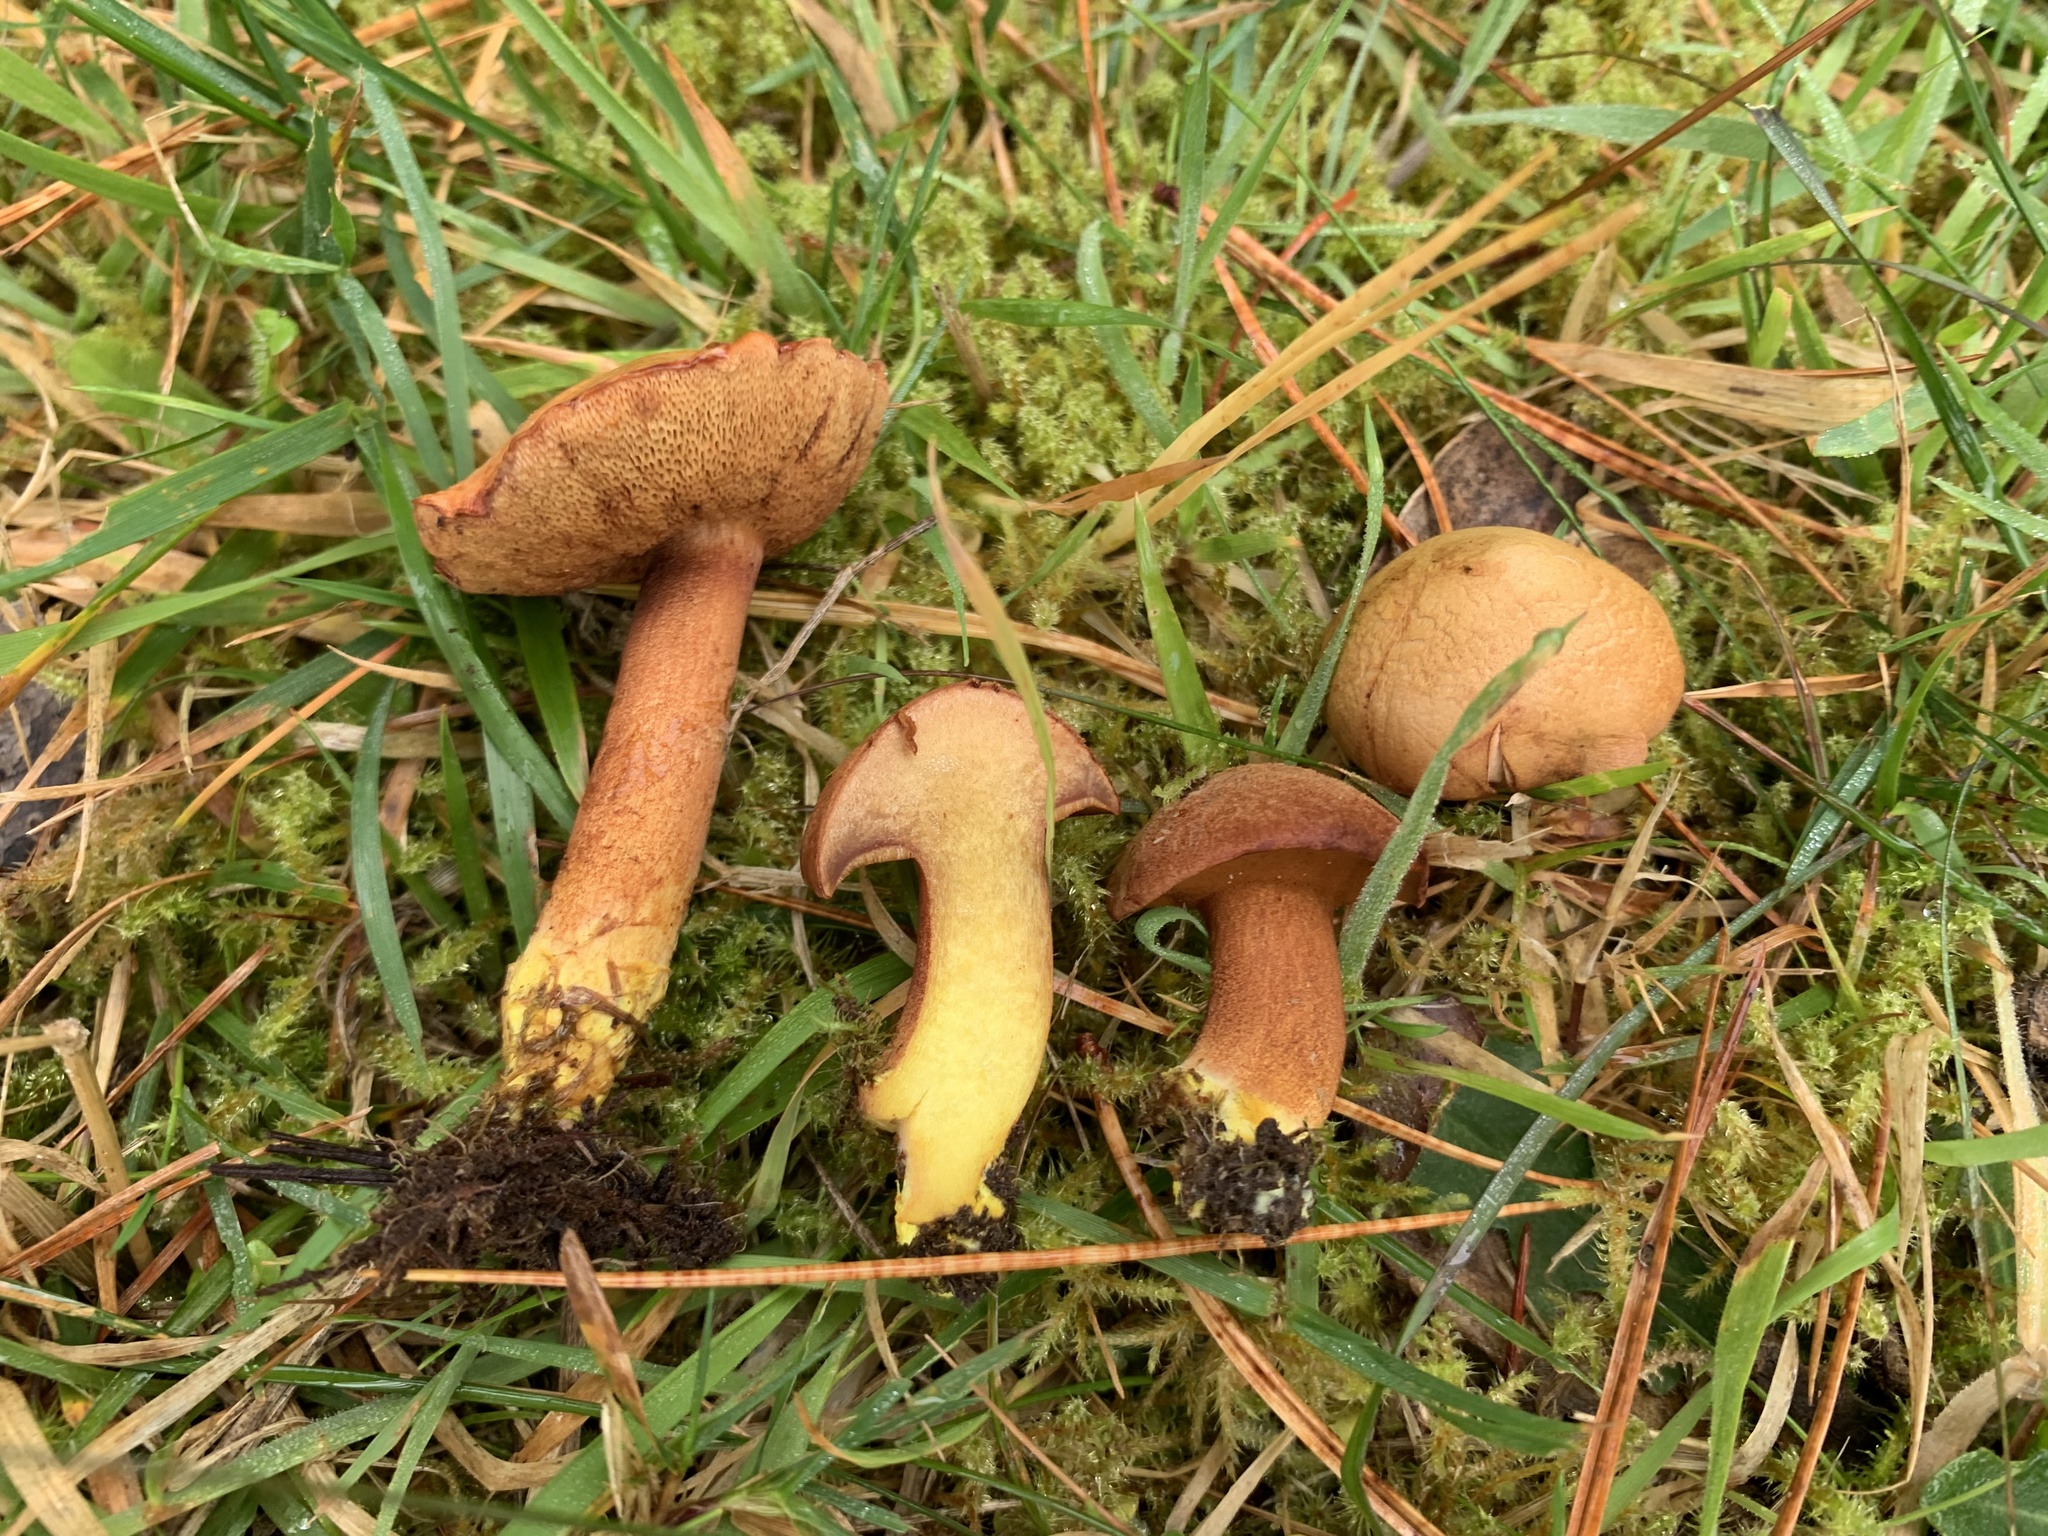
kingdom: Fungi
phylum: Basidiomycota
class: Agaricomycetes
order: Boletales
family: Boletaceae
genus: Chalciporus
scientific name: Chalciporus piperatus
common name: Peppery bolete
